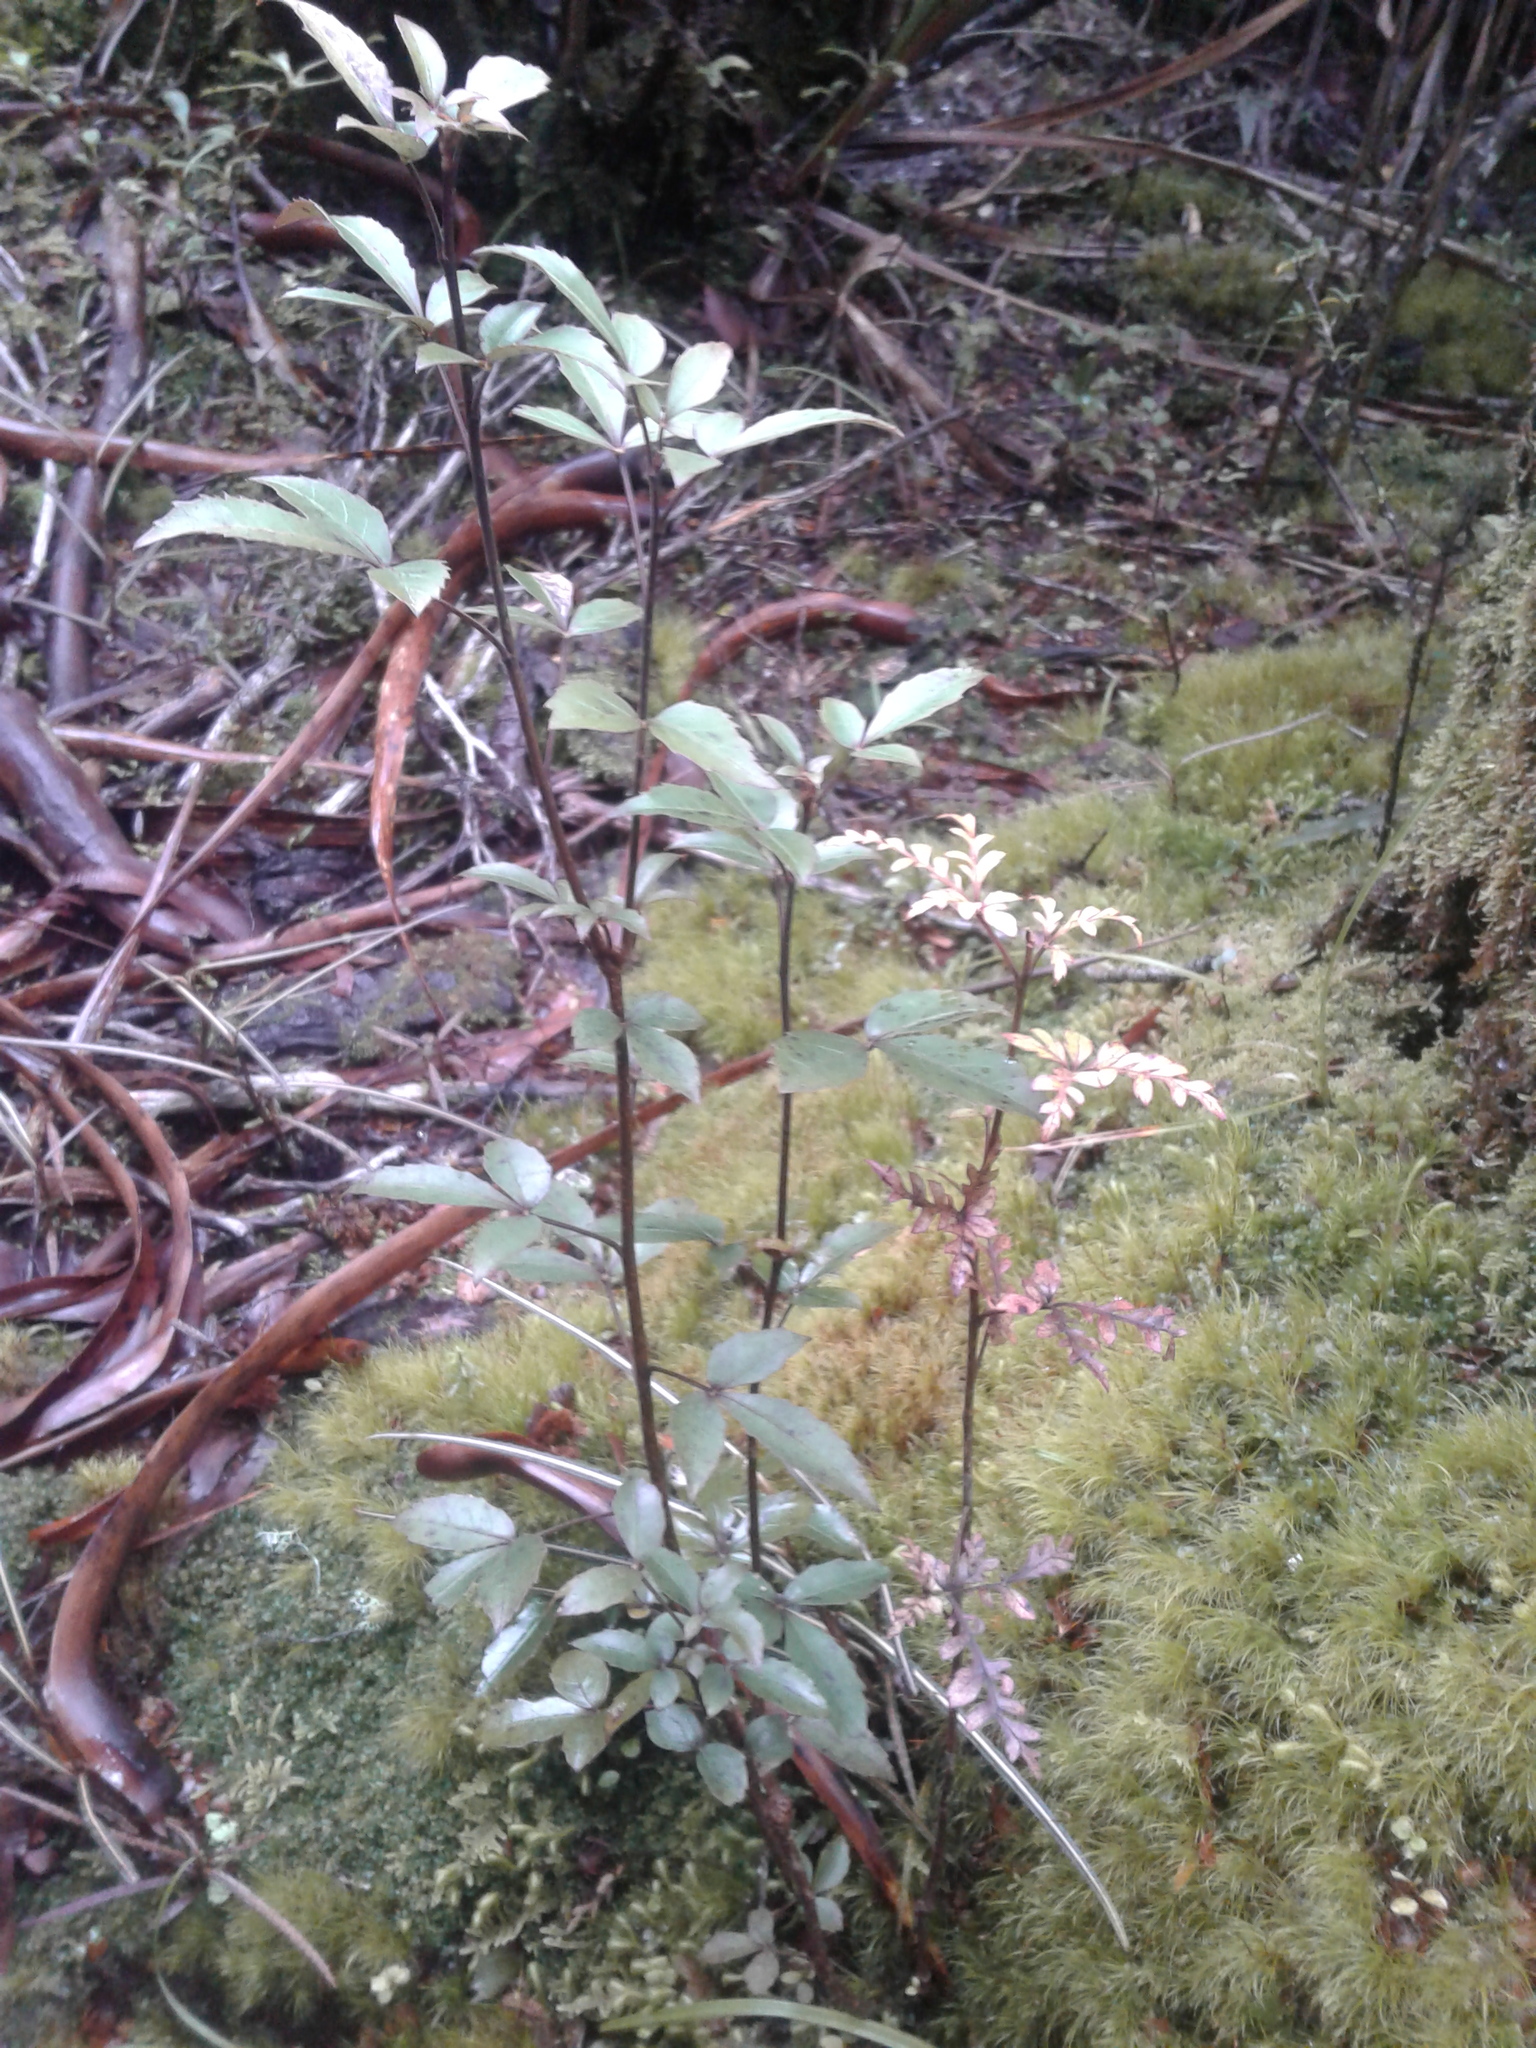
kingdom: Plantae
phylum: Tracheophyta
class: Magnoliopsida
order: Apiales
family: Araliaceae
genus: Raukaua
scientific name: Raukaua simplex
